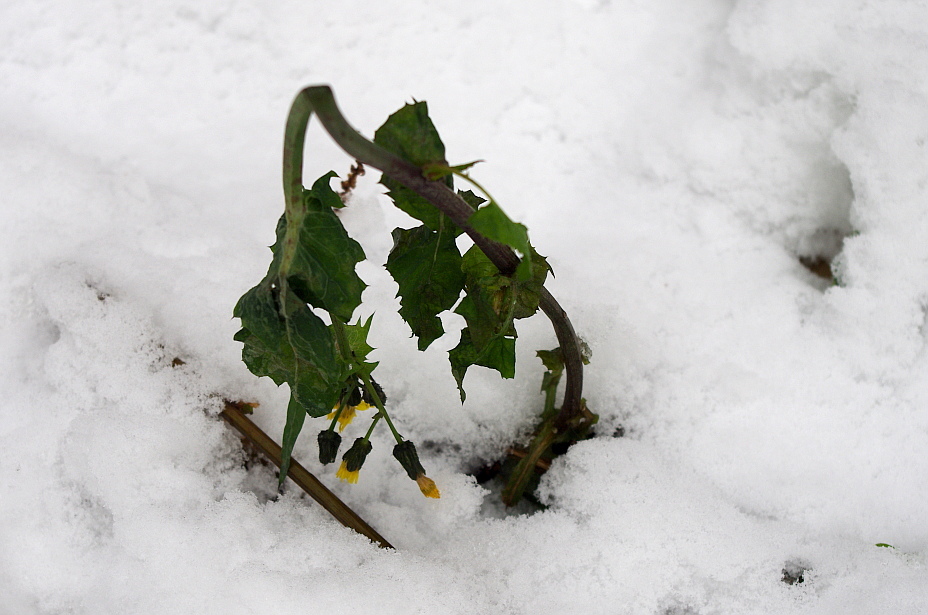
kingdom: Plantae
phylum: Tracheophyta
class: Magnoliopsida
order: Asterales
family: Asteraceae
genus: Sonchus
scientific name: Sonchus oleraceus
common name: Common sowthistle
